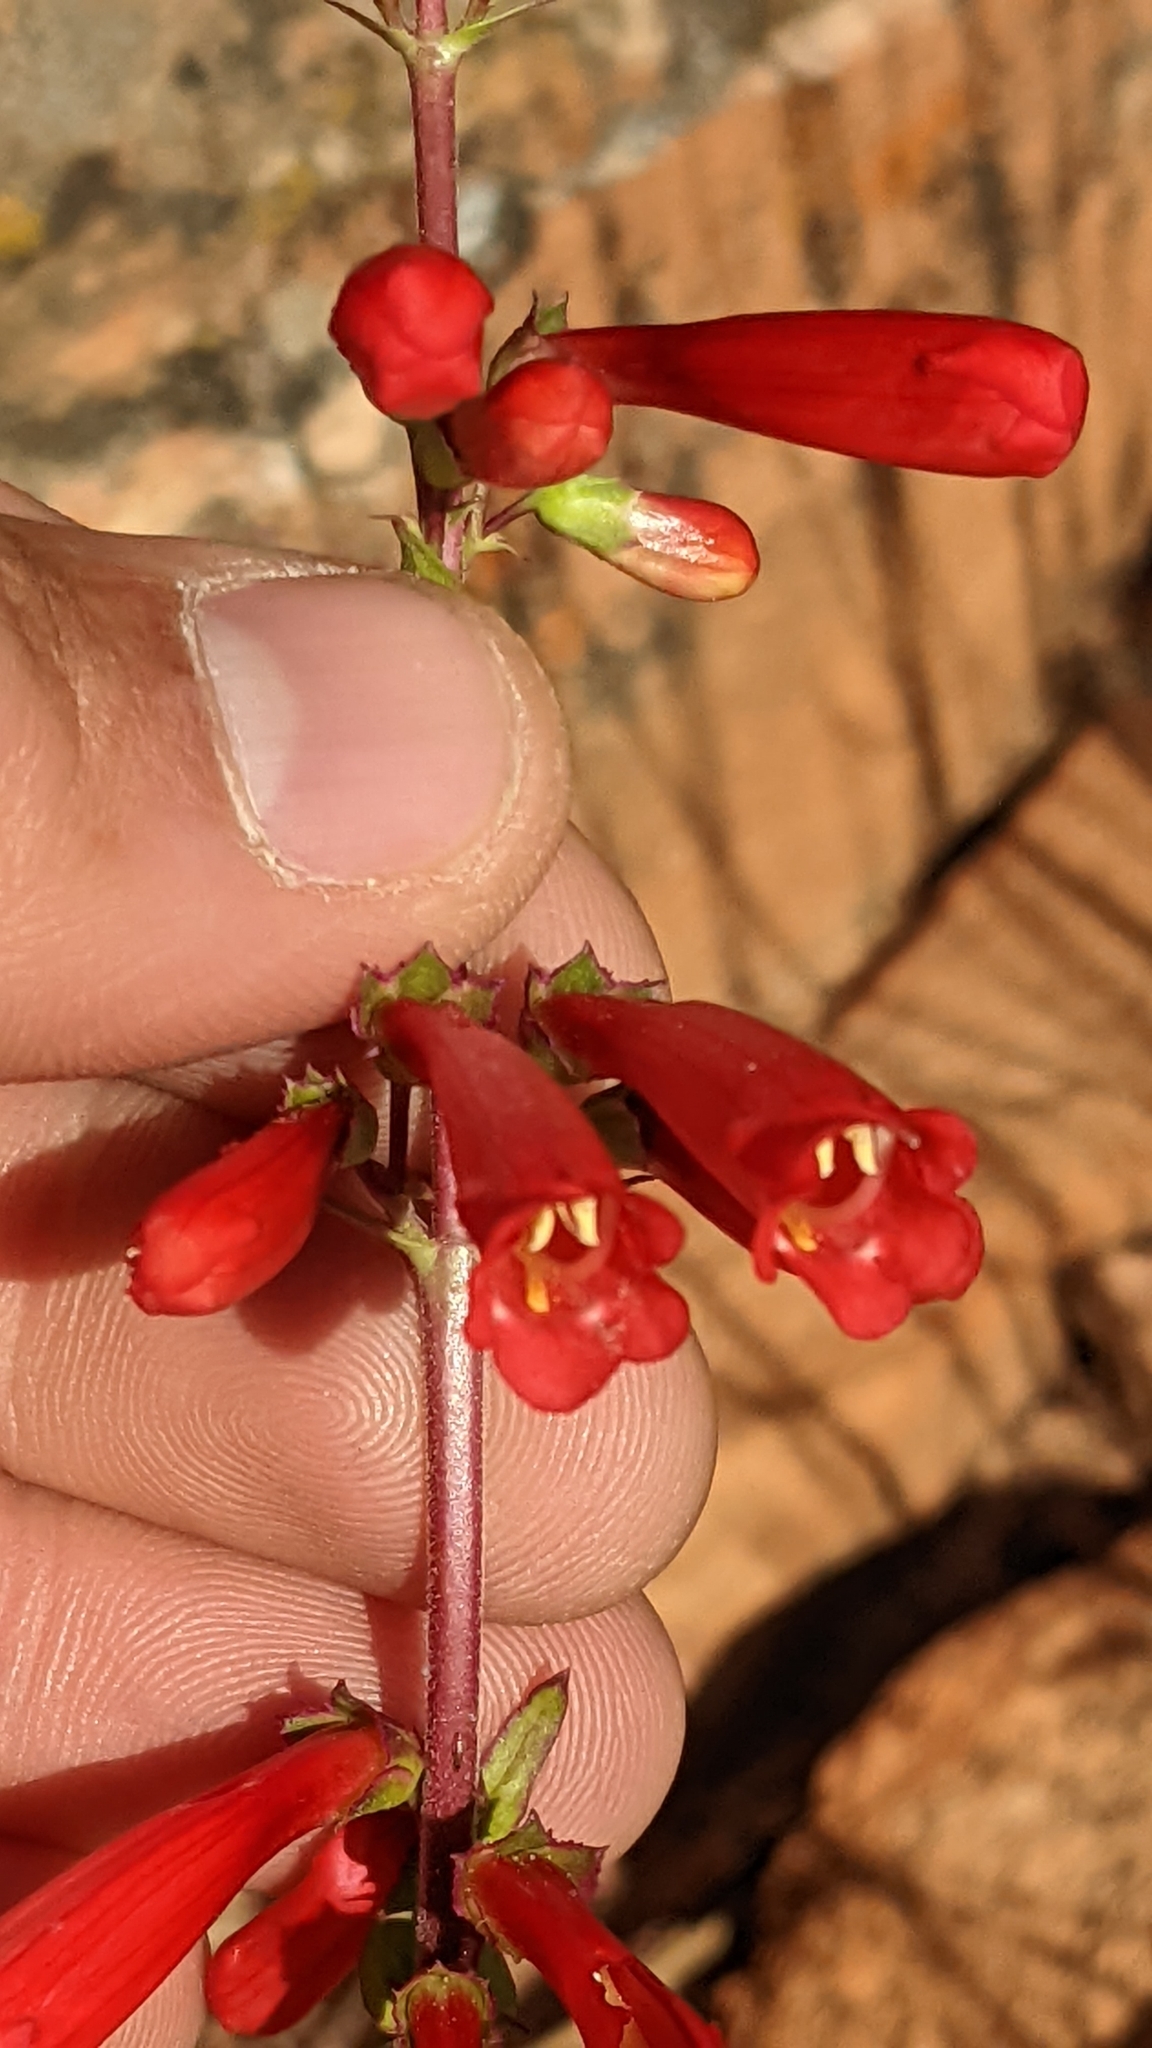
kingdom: Plantae
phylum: Tracheophyta
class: Magnoliopsida
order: Lamiales
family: Plantaginaceae
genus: Penstemon
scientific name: Penstemon eatonii
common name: Eaton's penstemon
